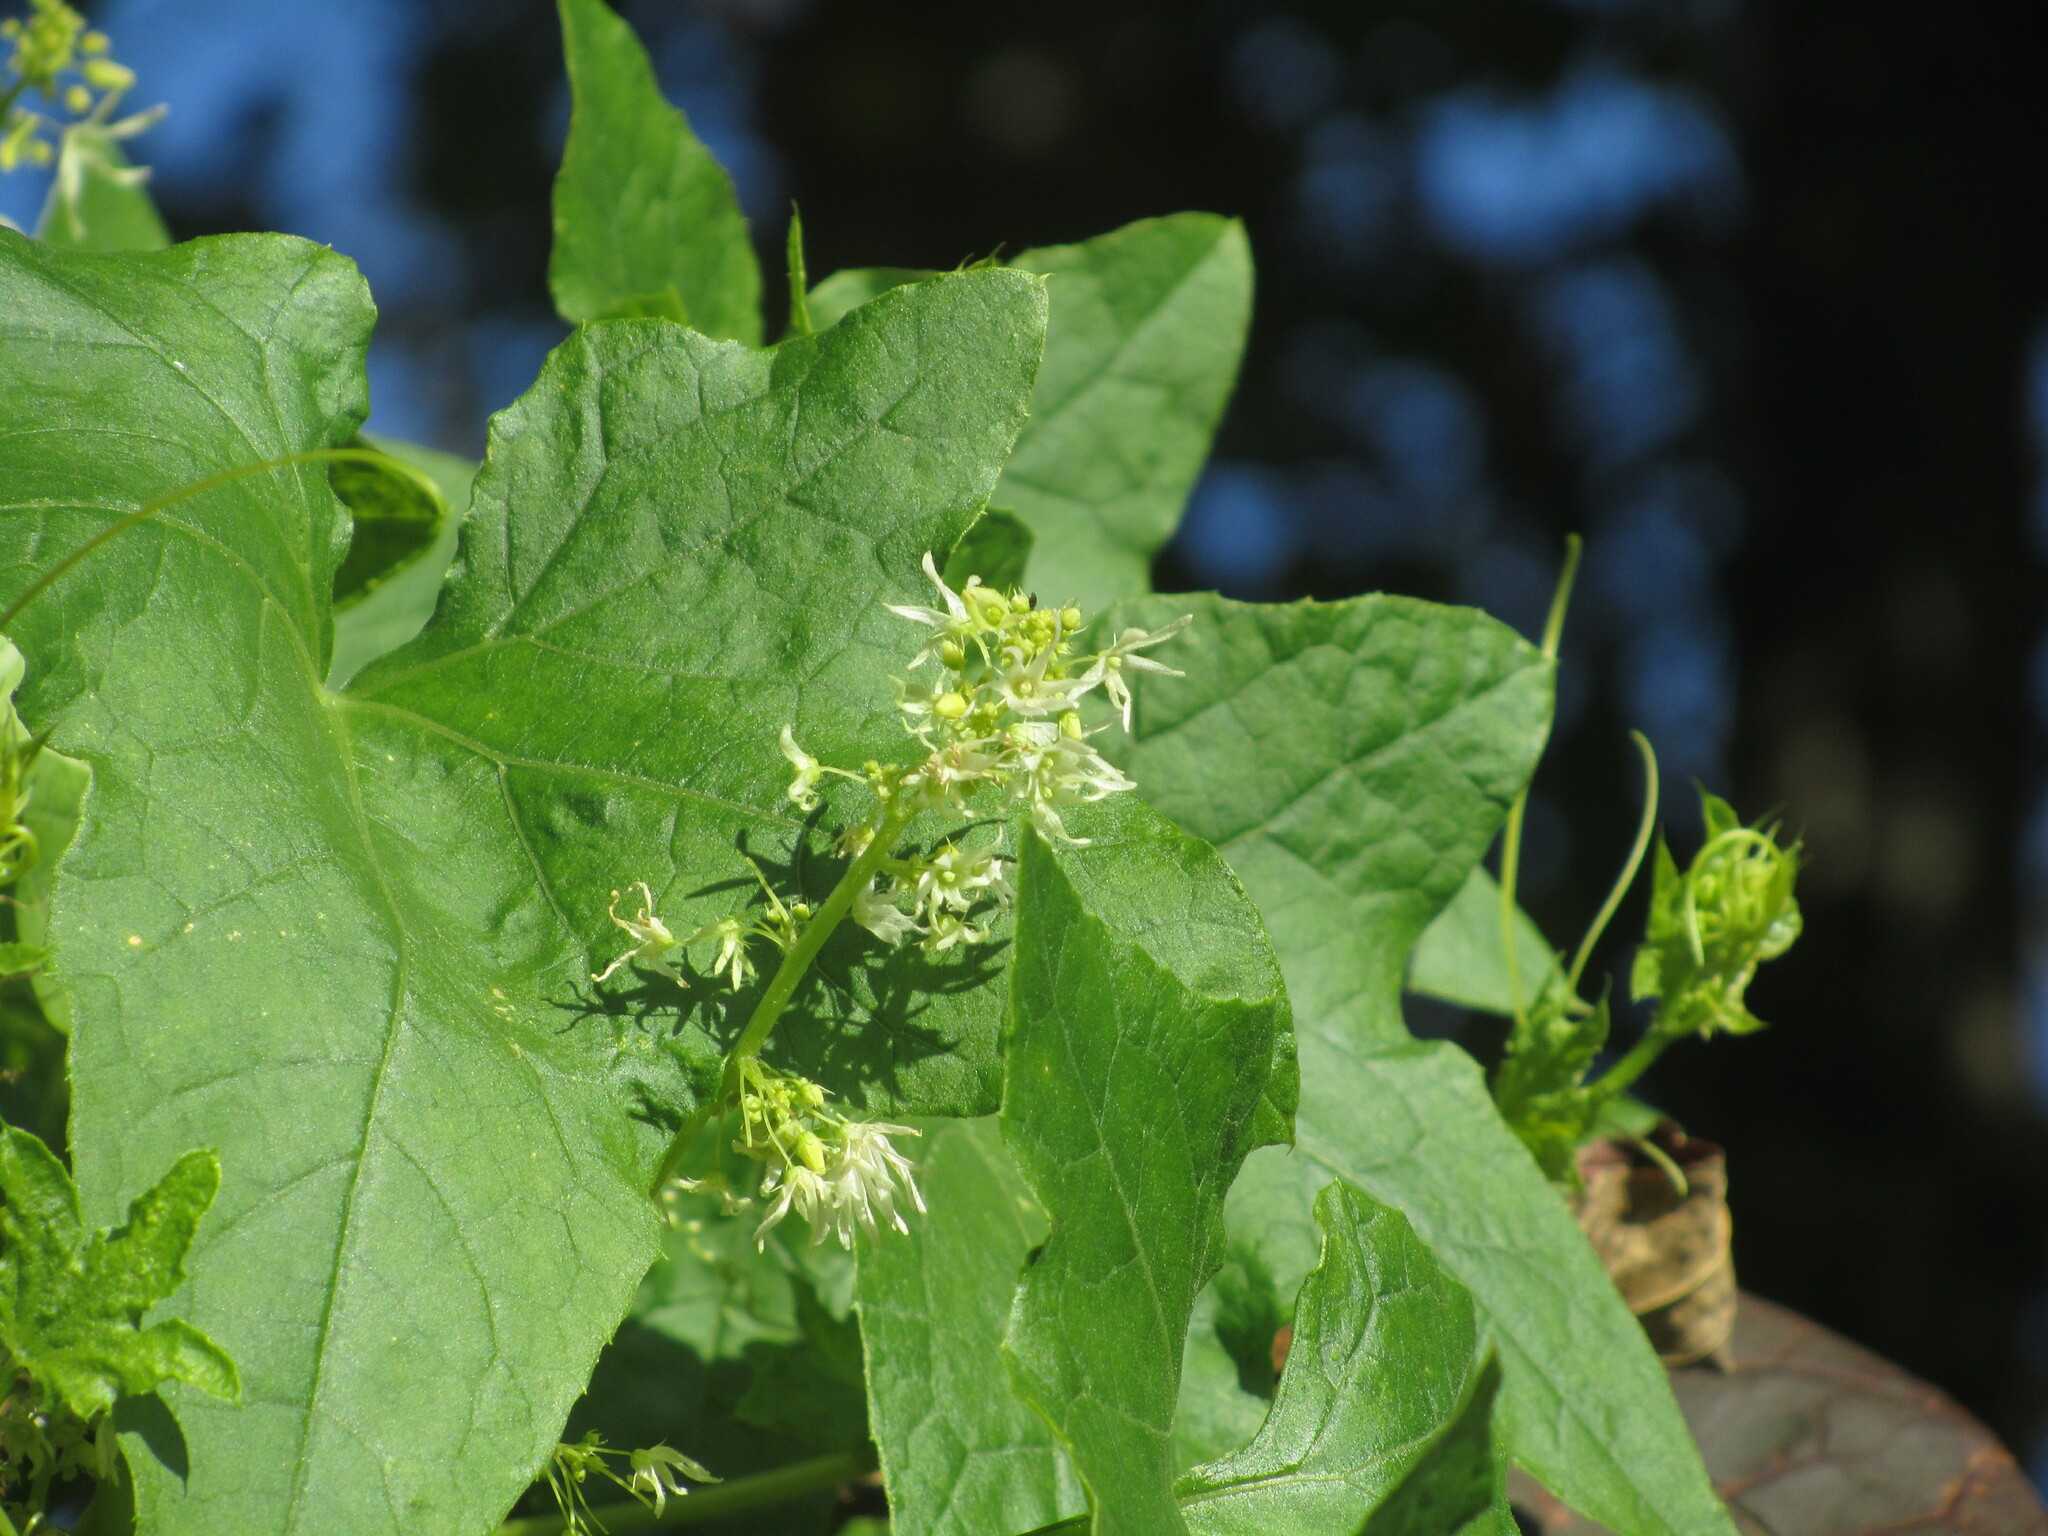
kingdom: Plantae
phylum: Tracheophyta
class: Magnoliopsida
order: Cucurbitales
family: Cucurbitaceae
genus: Echinocystis
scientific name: Echinocystis lobata
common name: Wild cucumber
